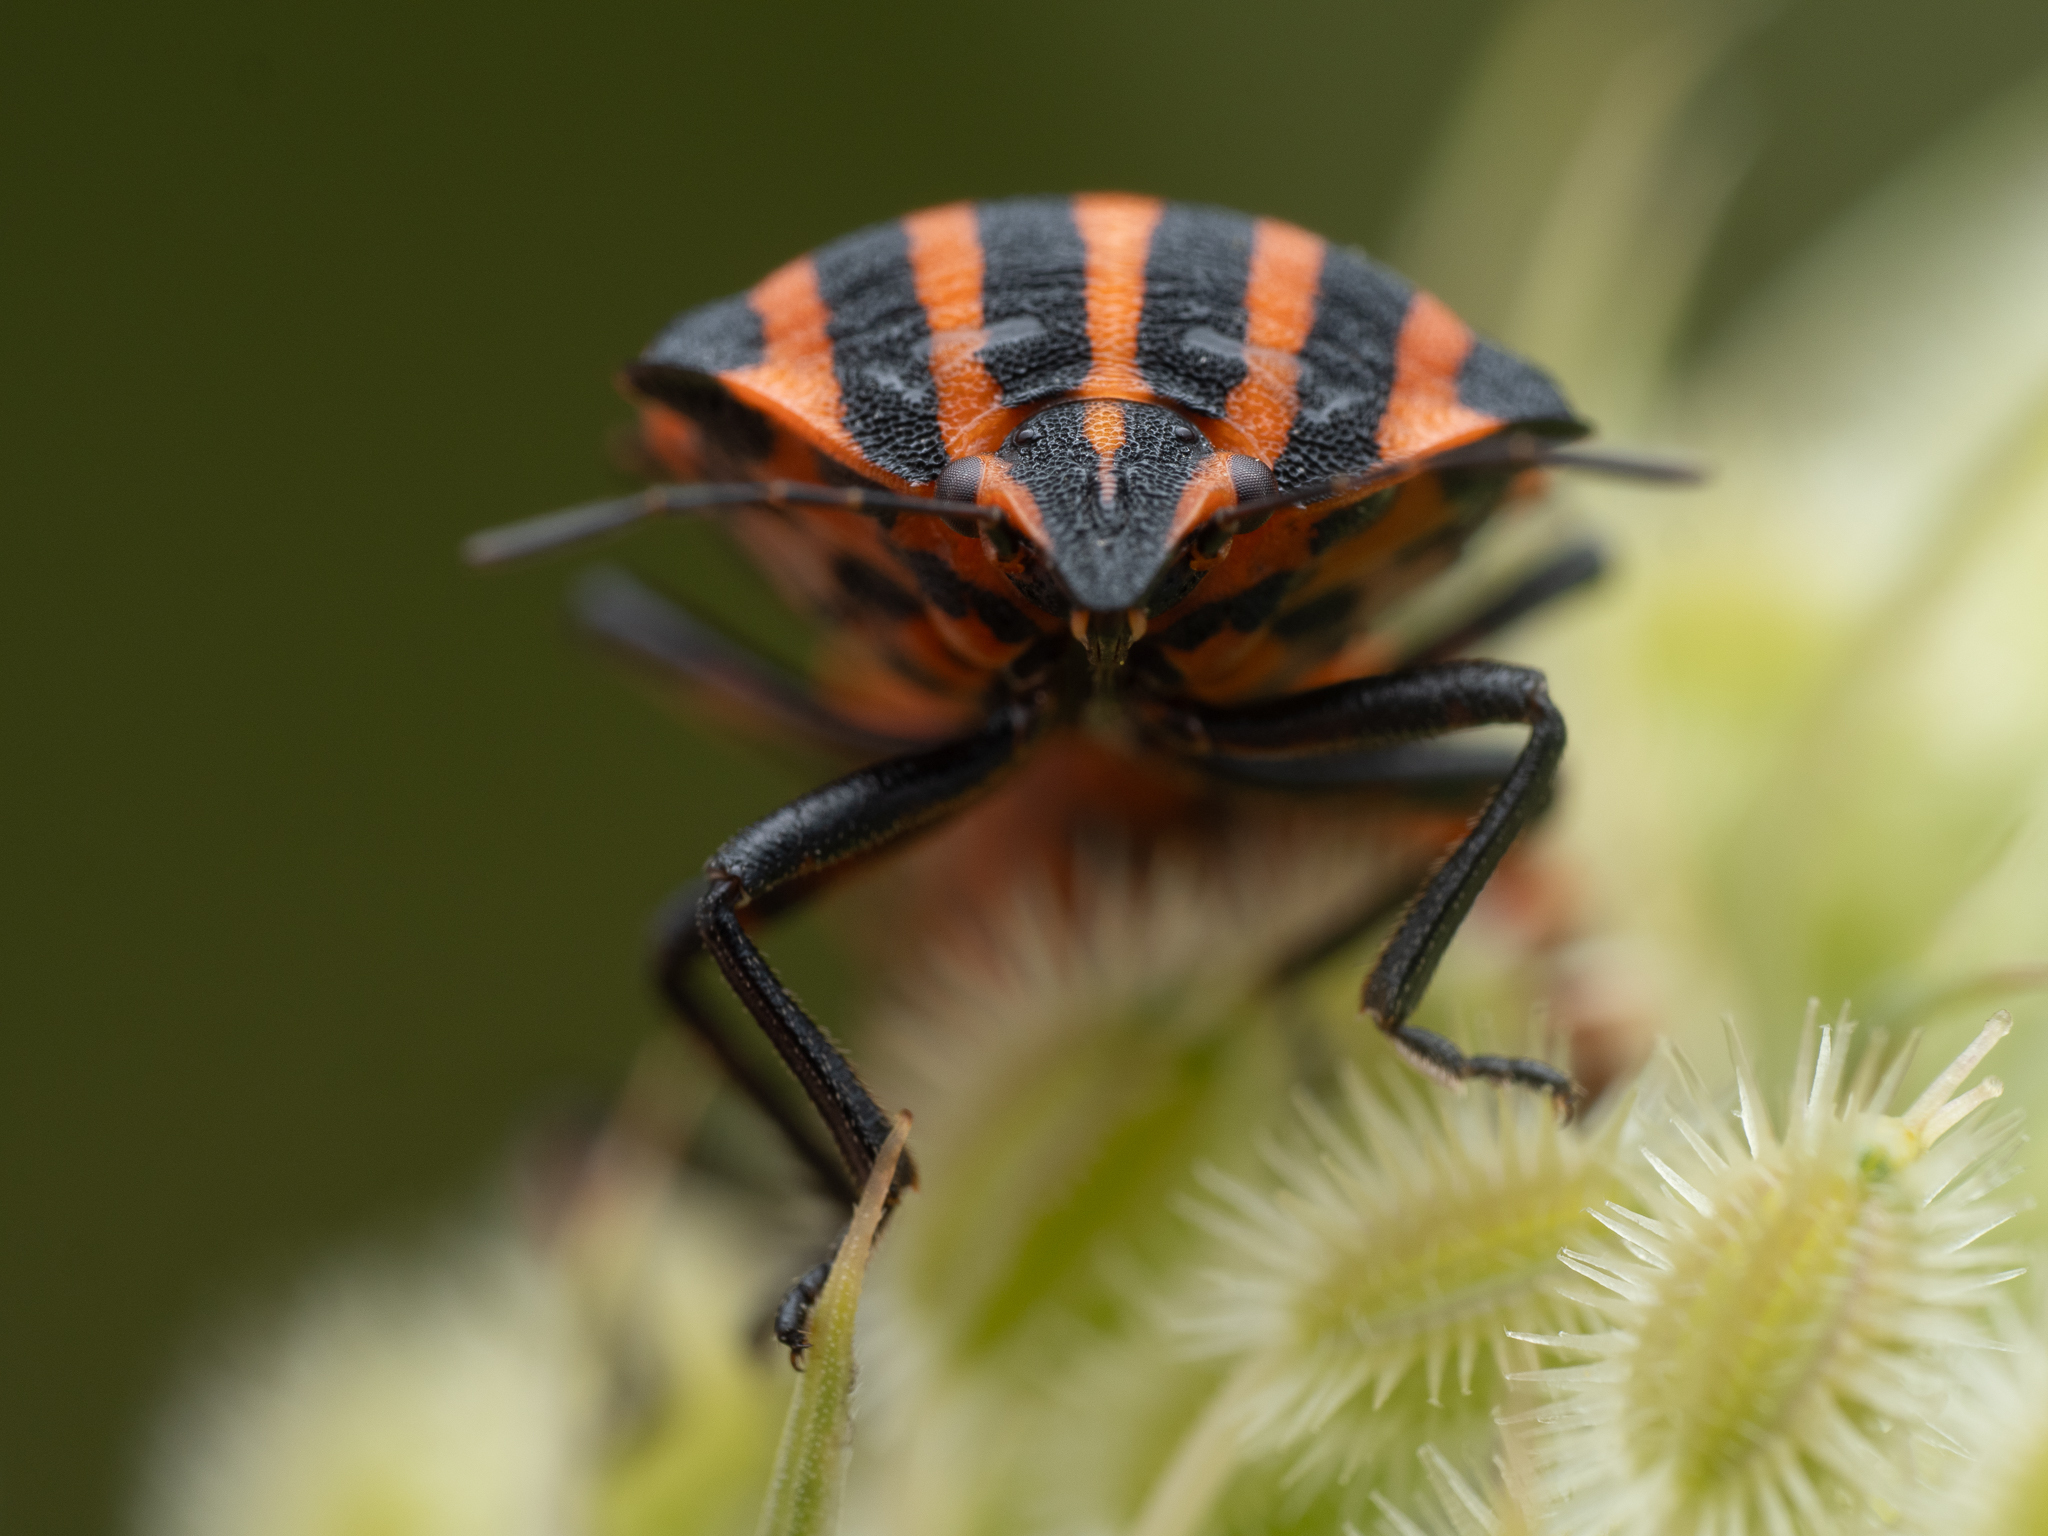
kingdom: Animalia
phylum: Arthropoda
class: Insecta
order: Hemiptera
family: Pentatomidae
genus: Graphosoma
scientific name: Graphosoma italicum
